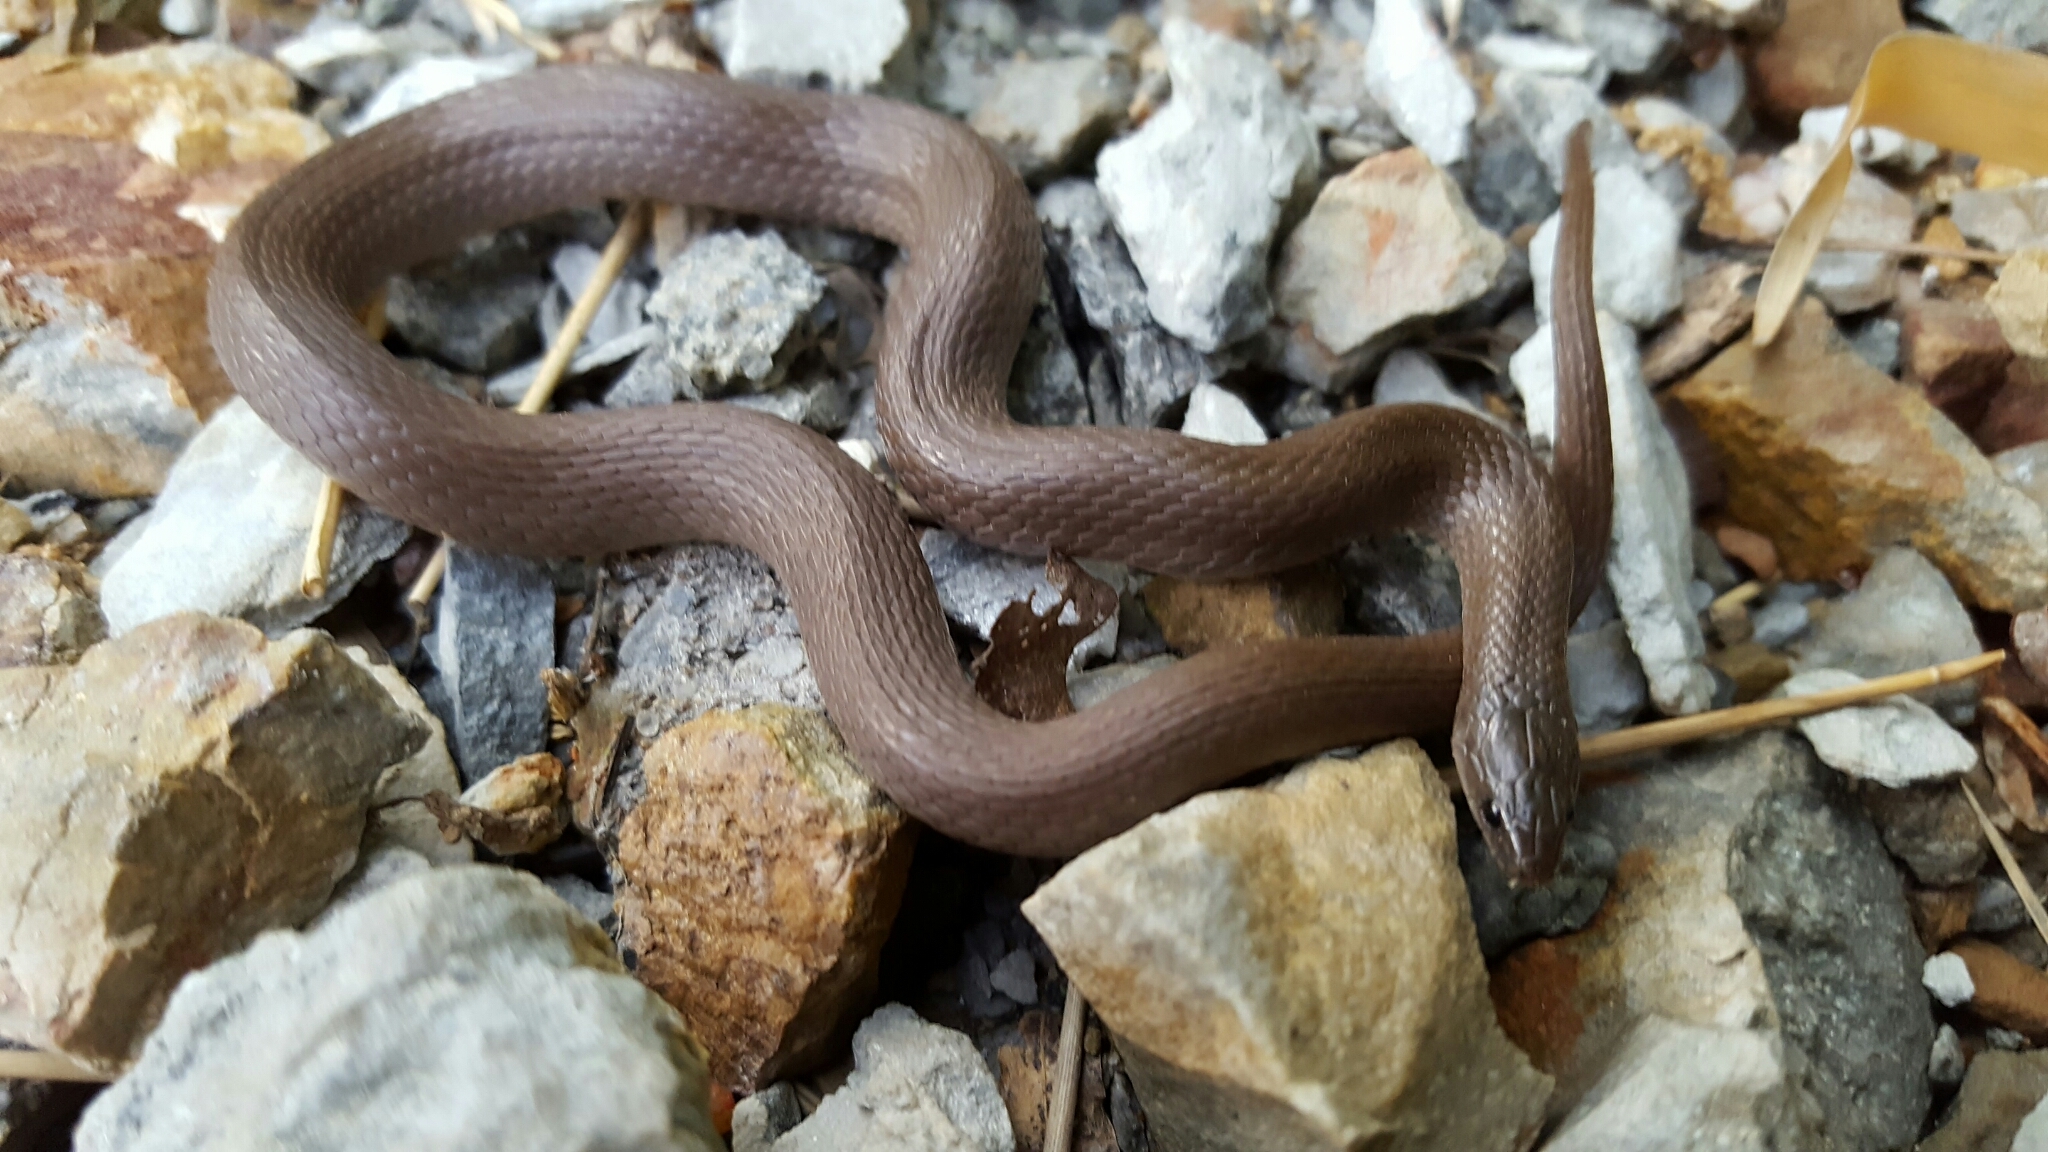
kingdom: Animalia
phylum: Chordata
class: Squamata
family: Colubridae
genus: Haldea
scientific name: Haldea striatula
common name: Rough earth snake
